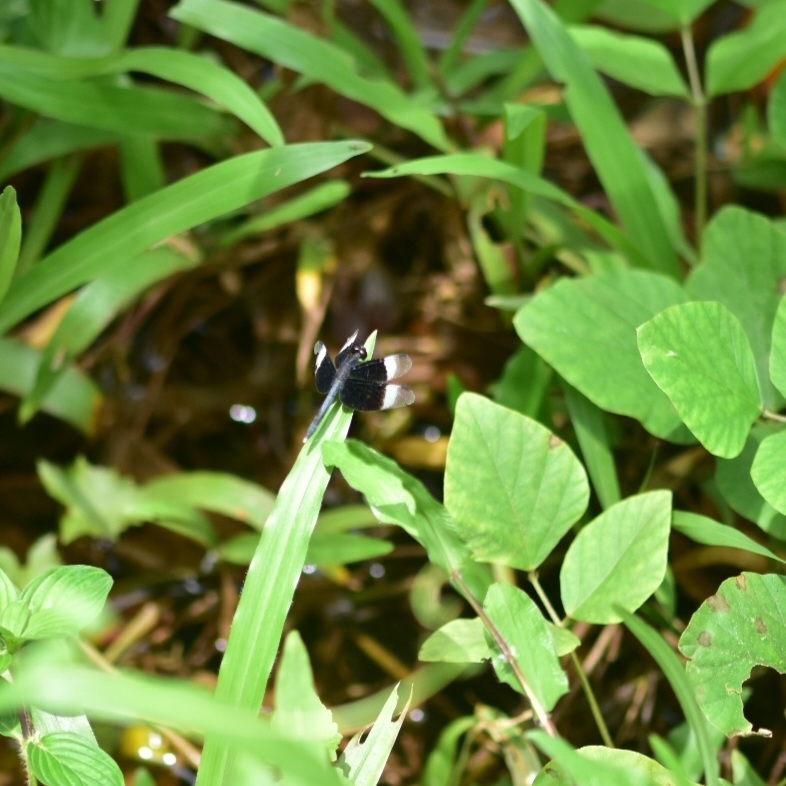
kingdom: Animalia
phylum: Arthropoda
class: Insecta
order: Odonata
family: Libellulidae
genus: Neurothemis
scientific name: Neurothemis tullia
